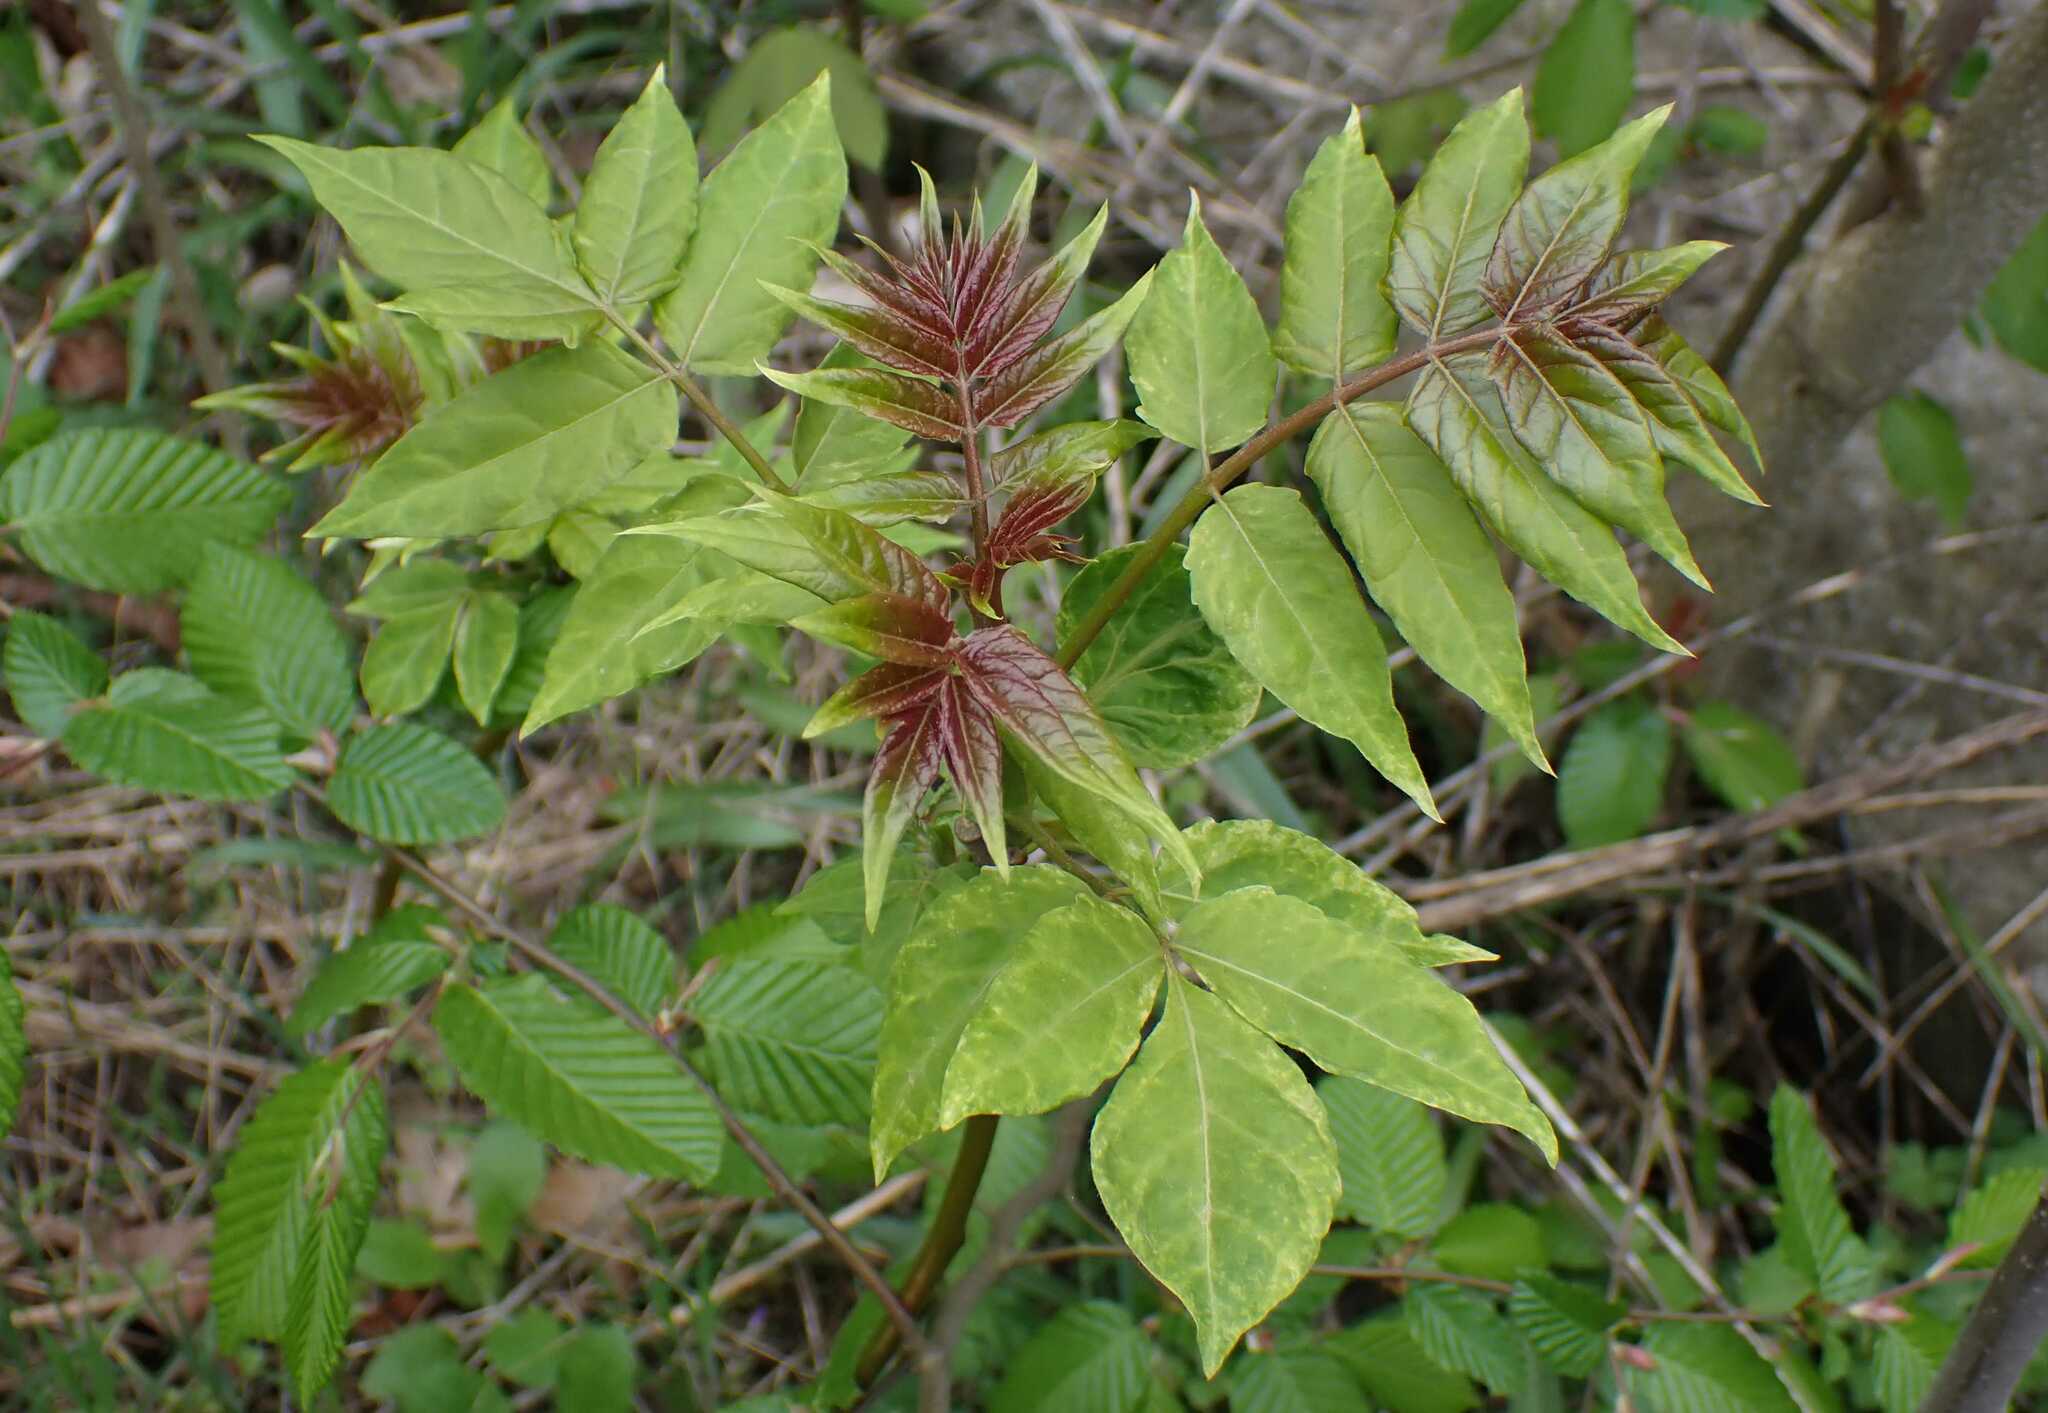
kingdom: Plantae
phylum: Tracheophyta
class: Magnoliopsida
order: Sapindales
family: Simaroubaceae
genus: Ailanthus
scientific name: Ailanthus altissima
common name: Tree-of-heaven
